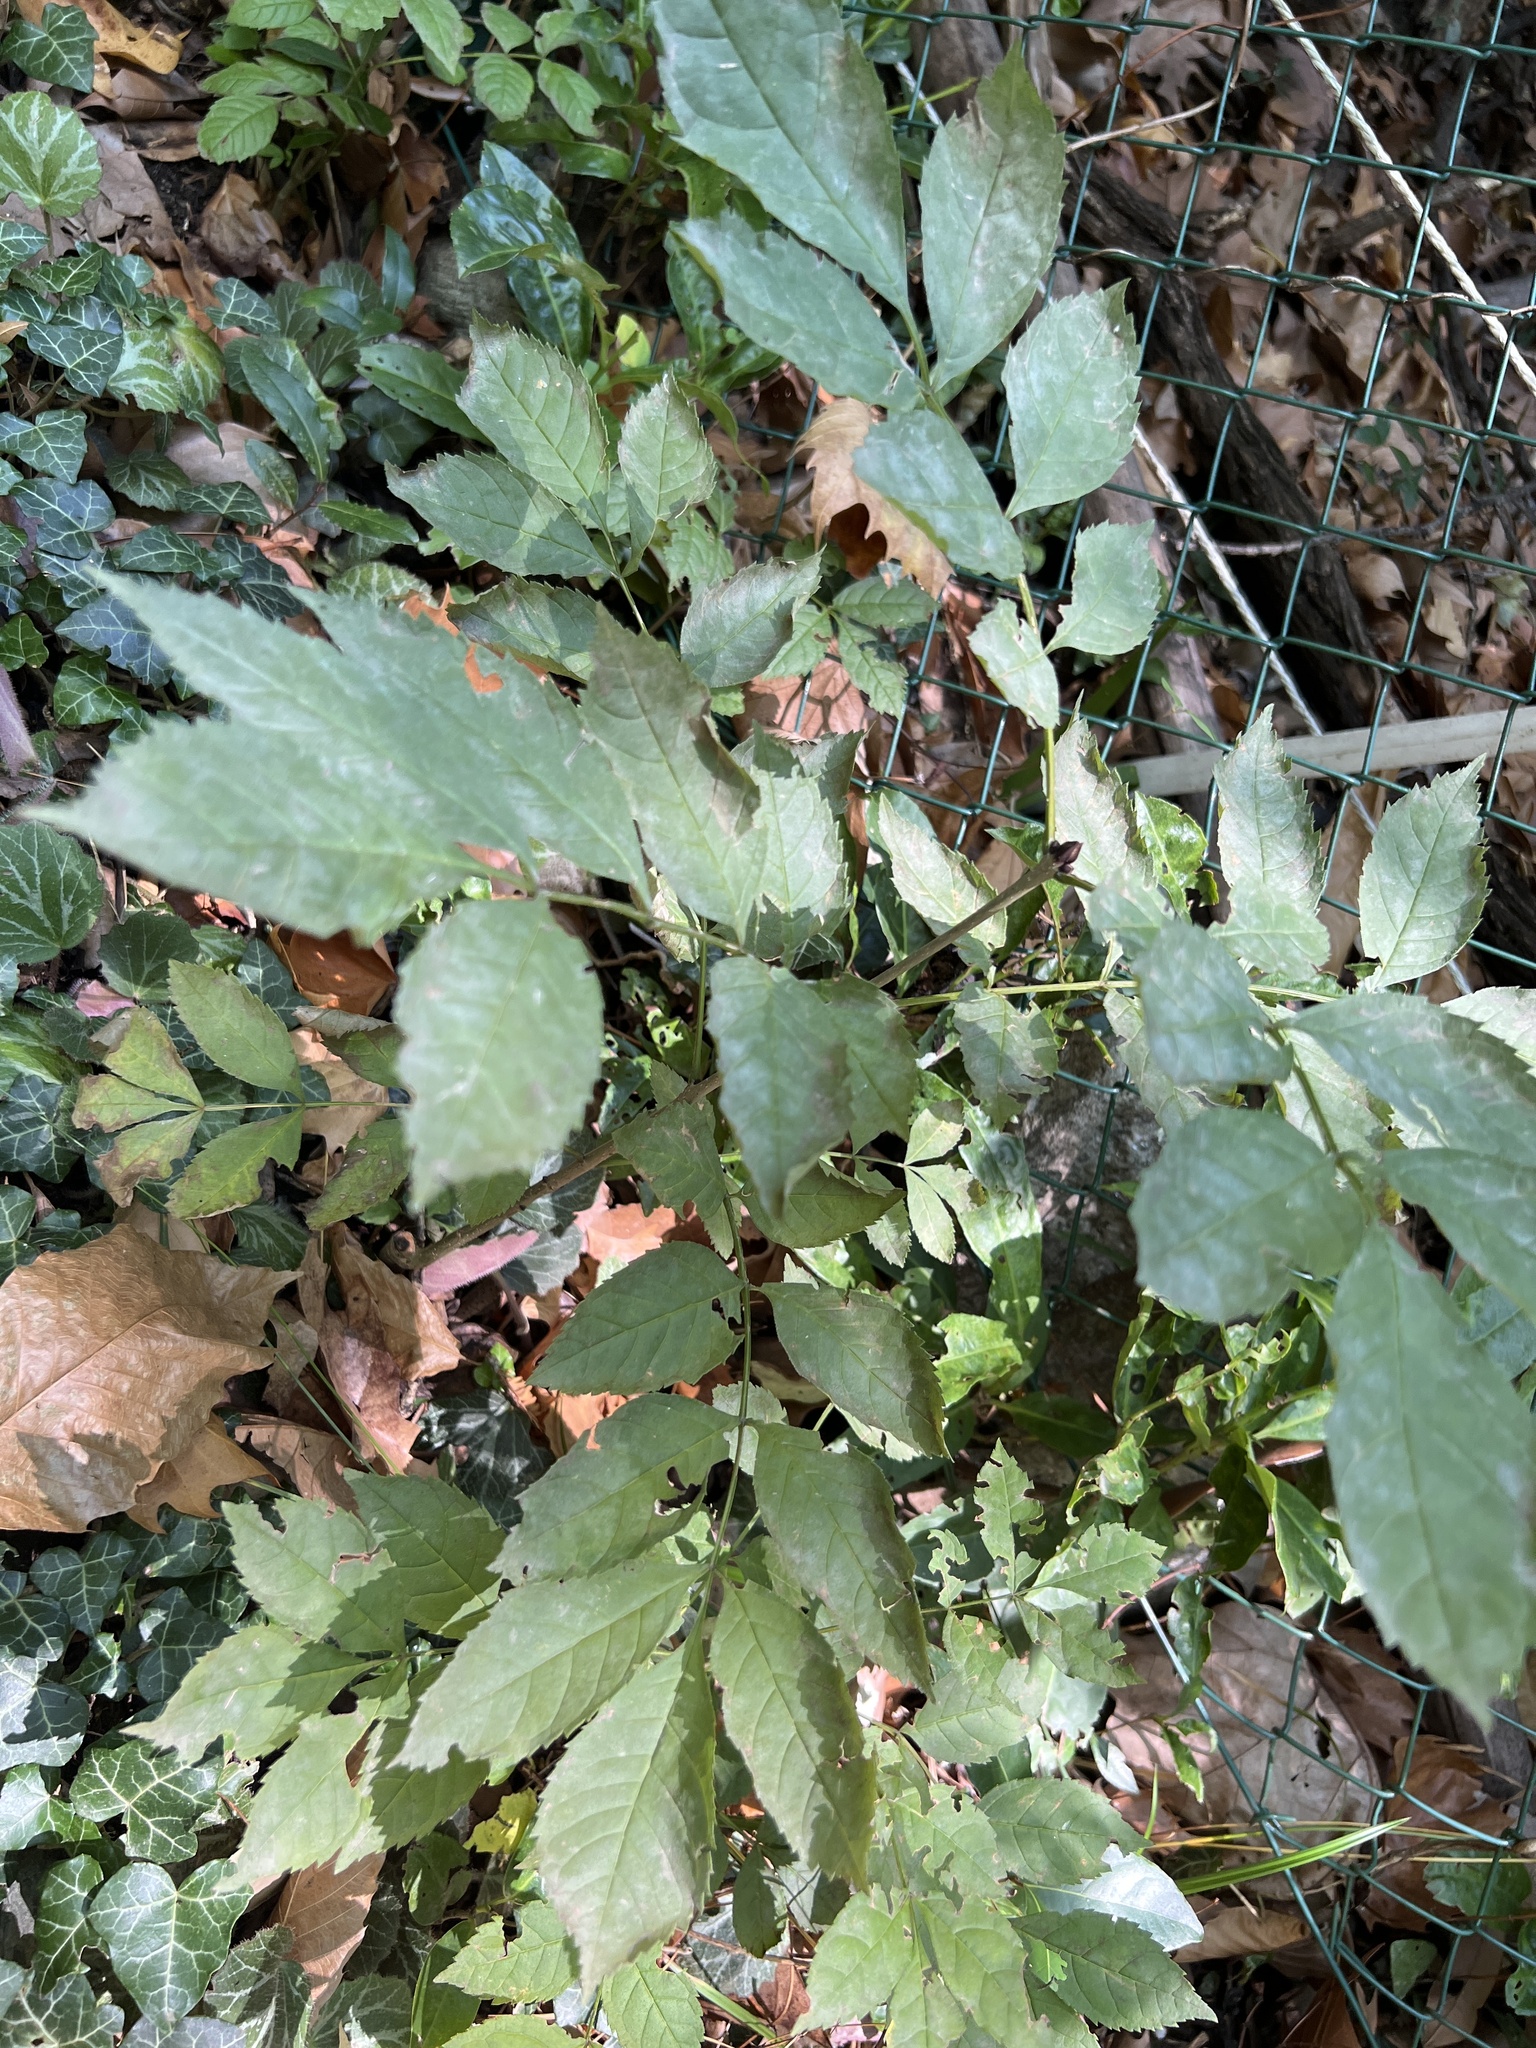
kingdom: Plantae
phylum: Tracheophyta
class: Magnoliopsida
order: Lamiales
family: Oleaceae
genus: Fraxinus
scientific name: Fraxinus excelsior
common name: European ash
